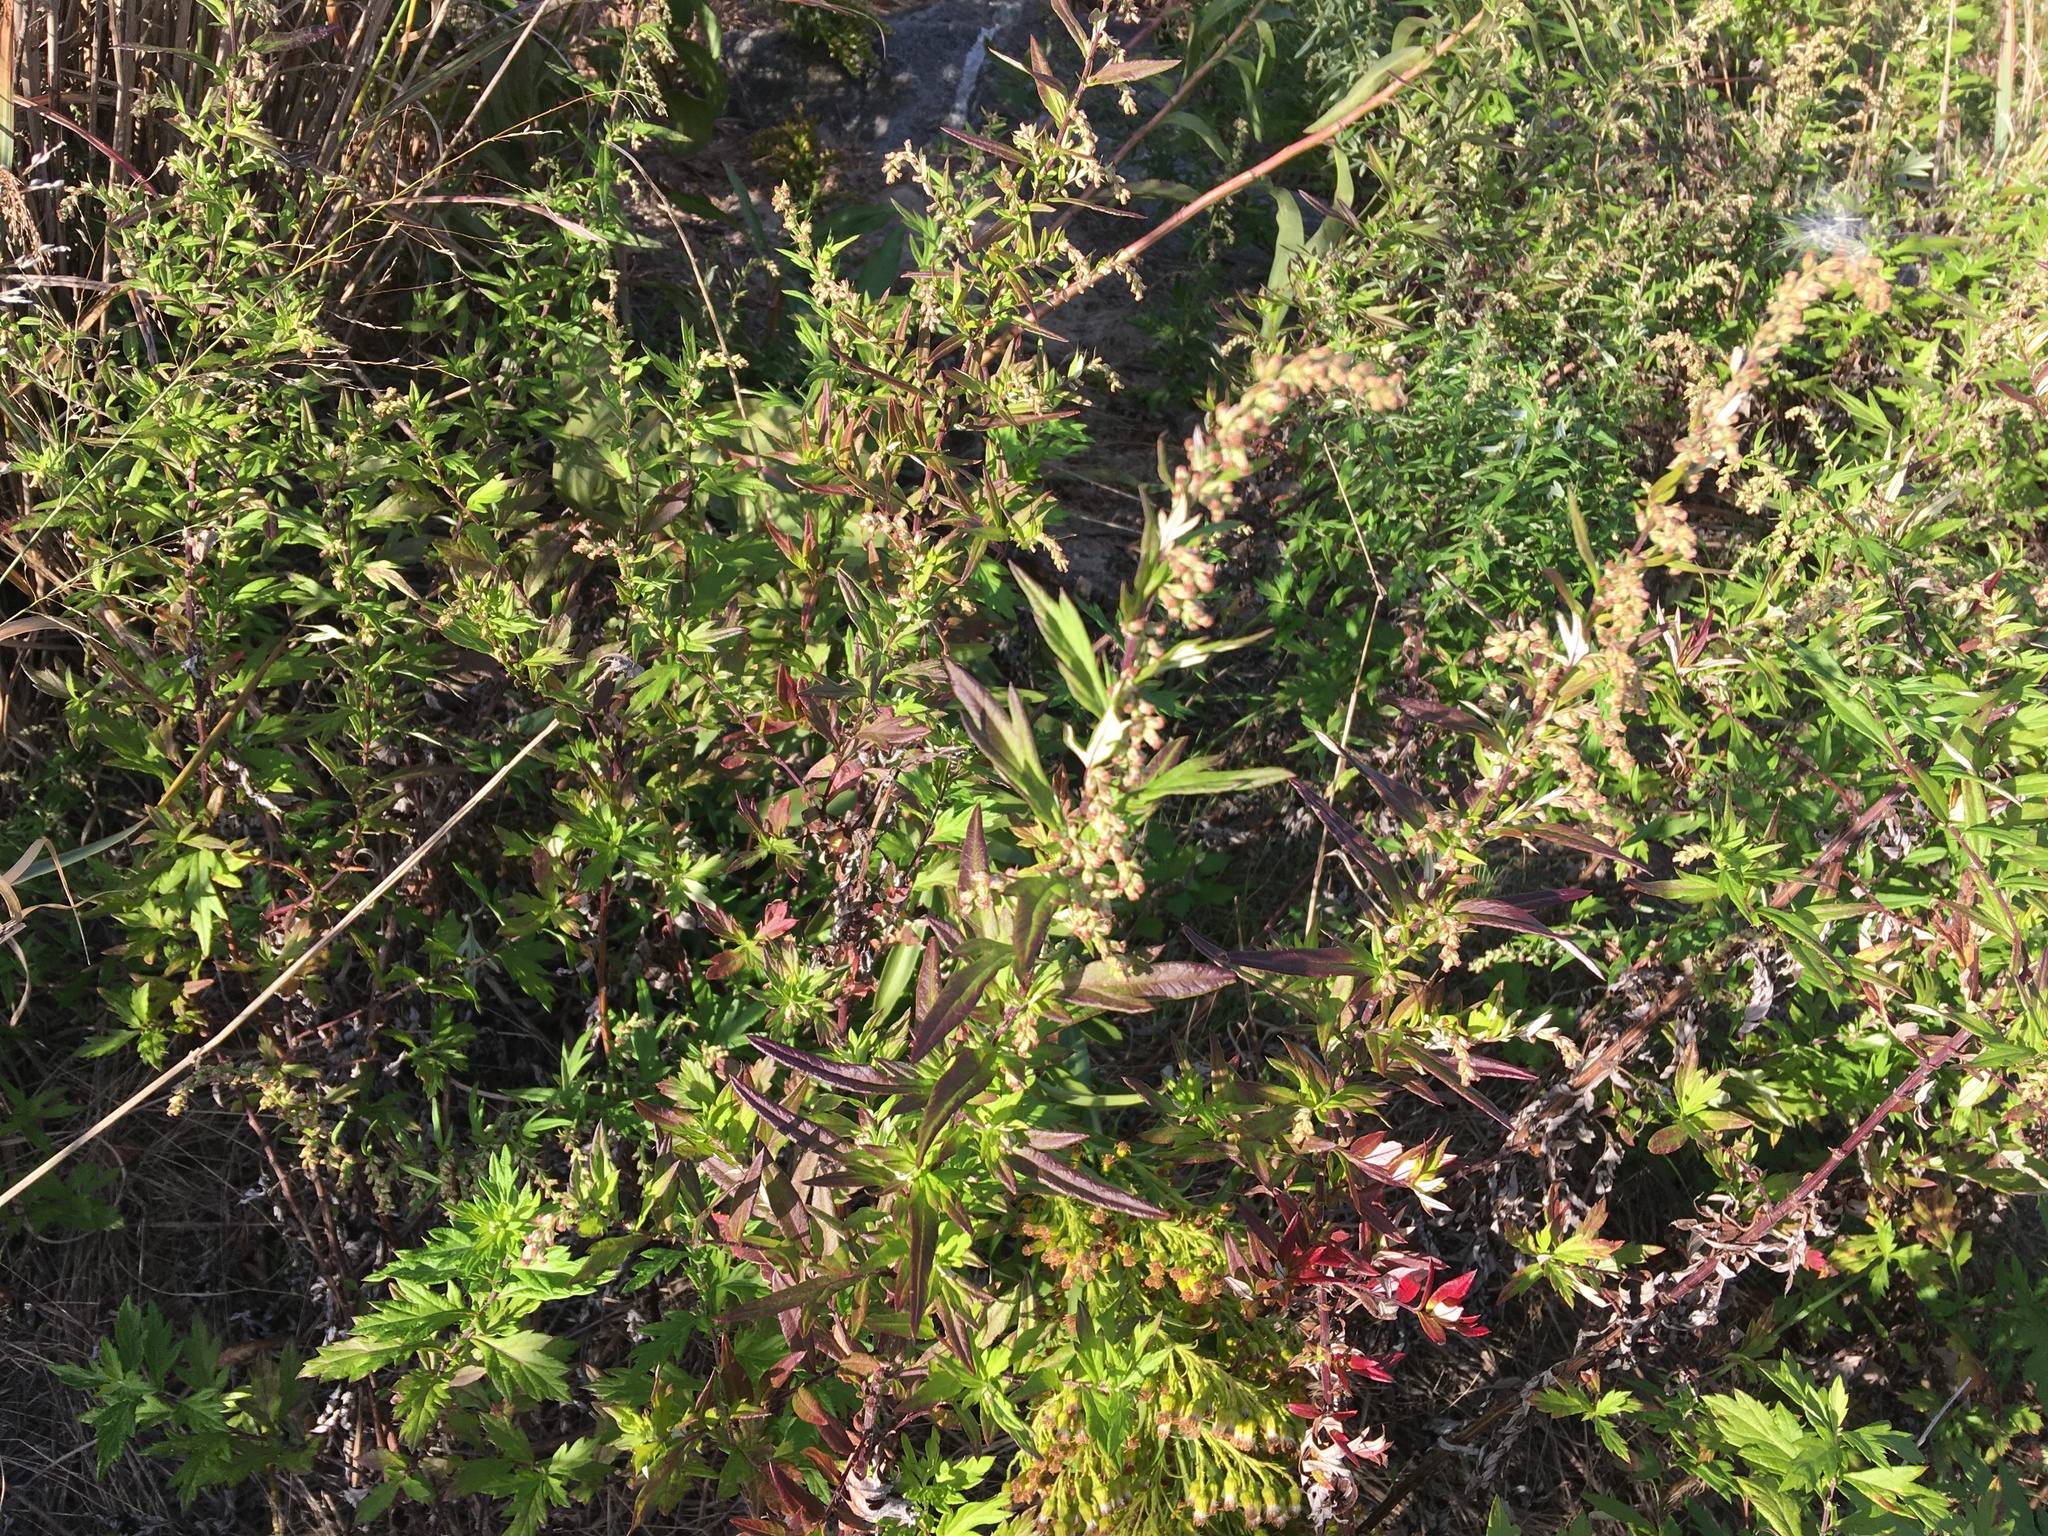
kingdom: Plantae
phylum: Tracheophyta
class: Magnoliopsida
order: Asterales
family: Asteraceae
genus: Artemisia
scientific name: Artemisia vulgaris
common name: Mugwort
